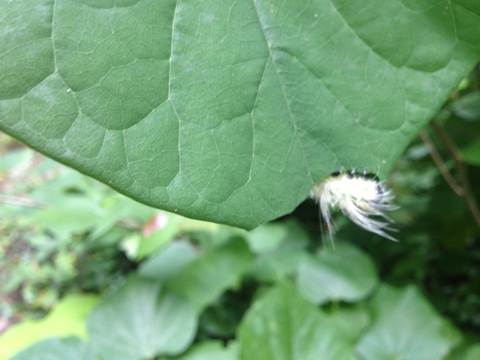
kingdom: Animalia
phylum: Arthropoda
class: Insecta
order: Lepidoptera
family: Noctuidae
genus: Acronicta
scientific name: Acronicta americana
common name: American dagger
